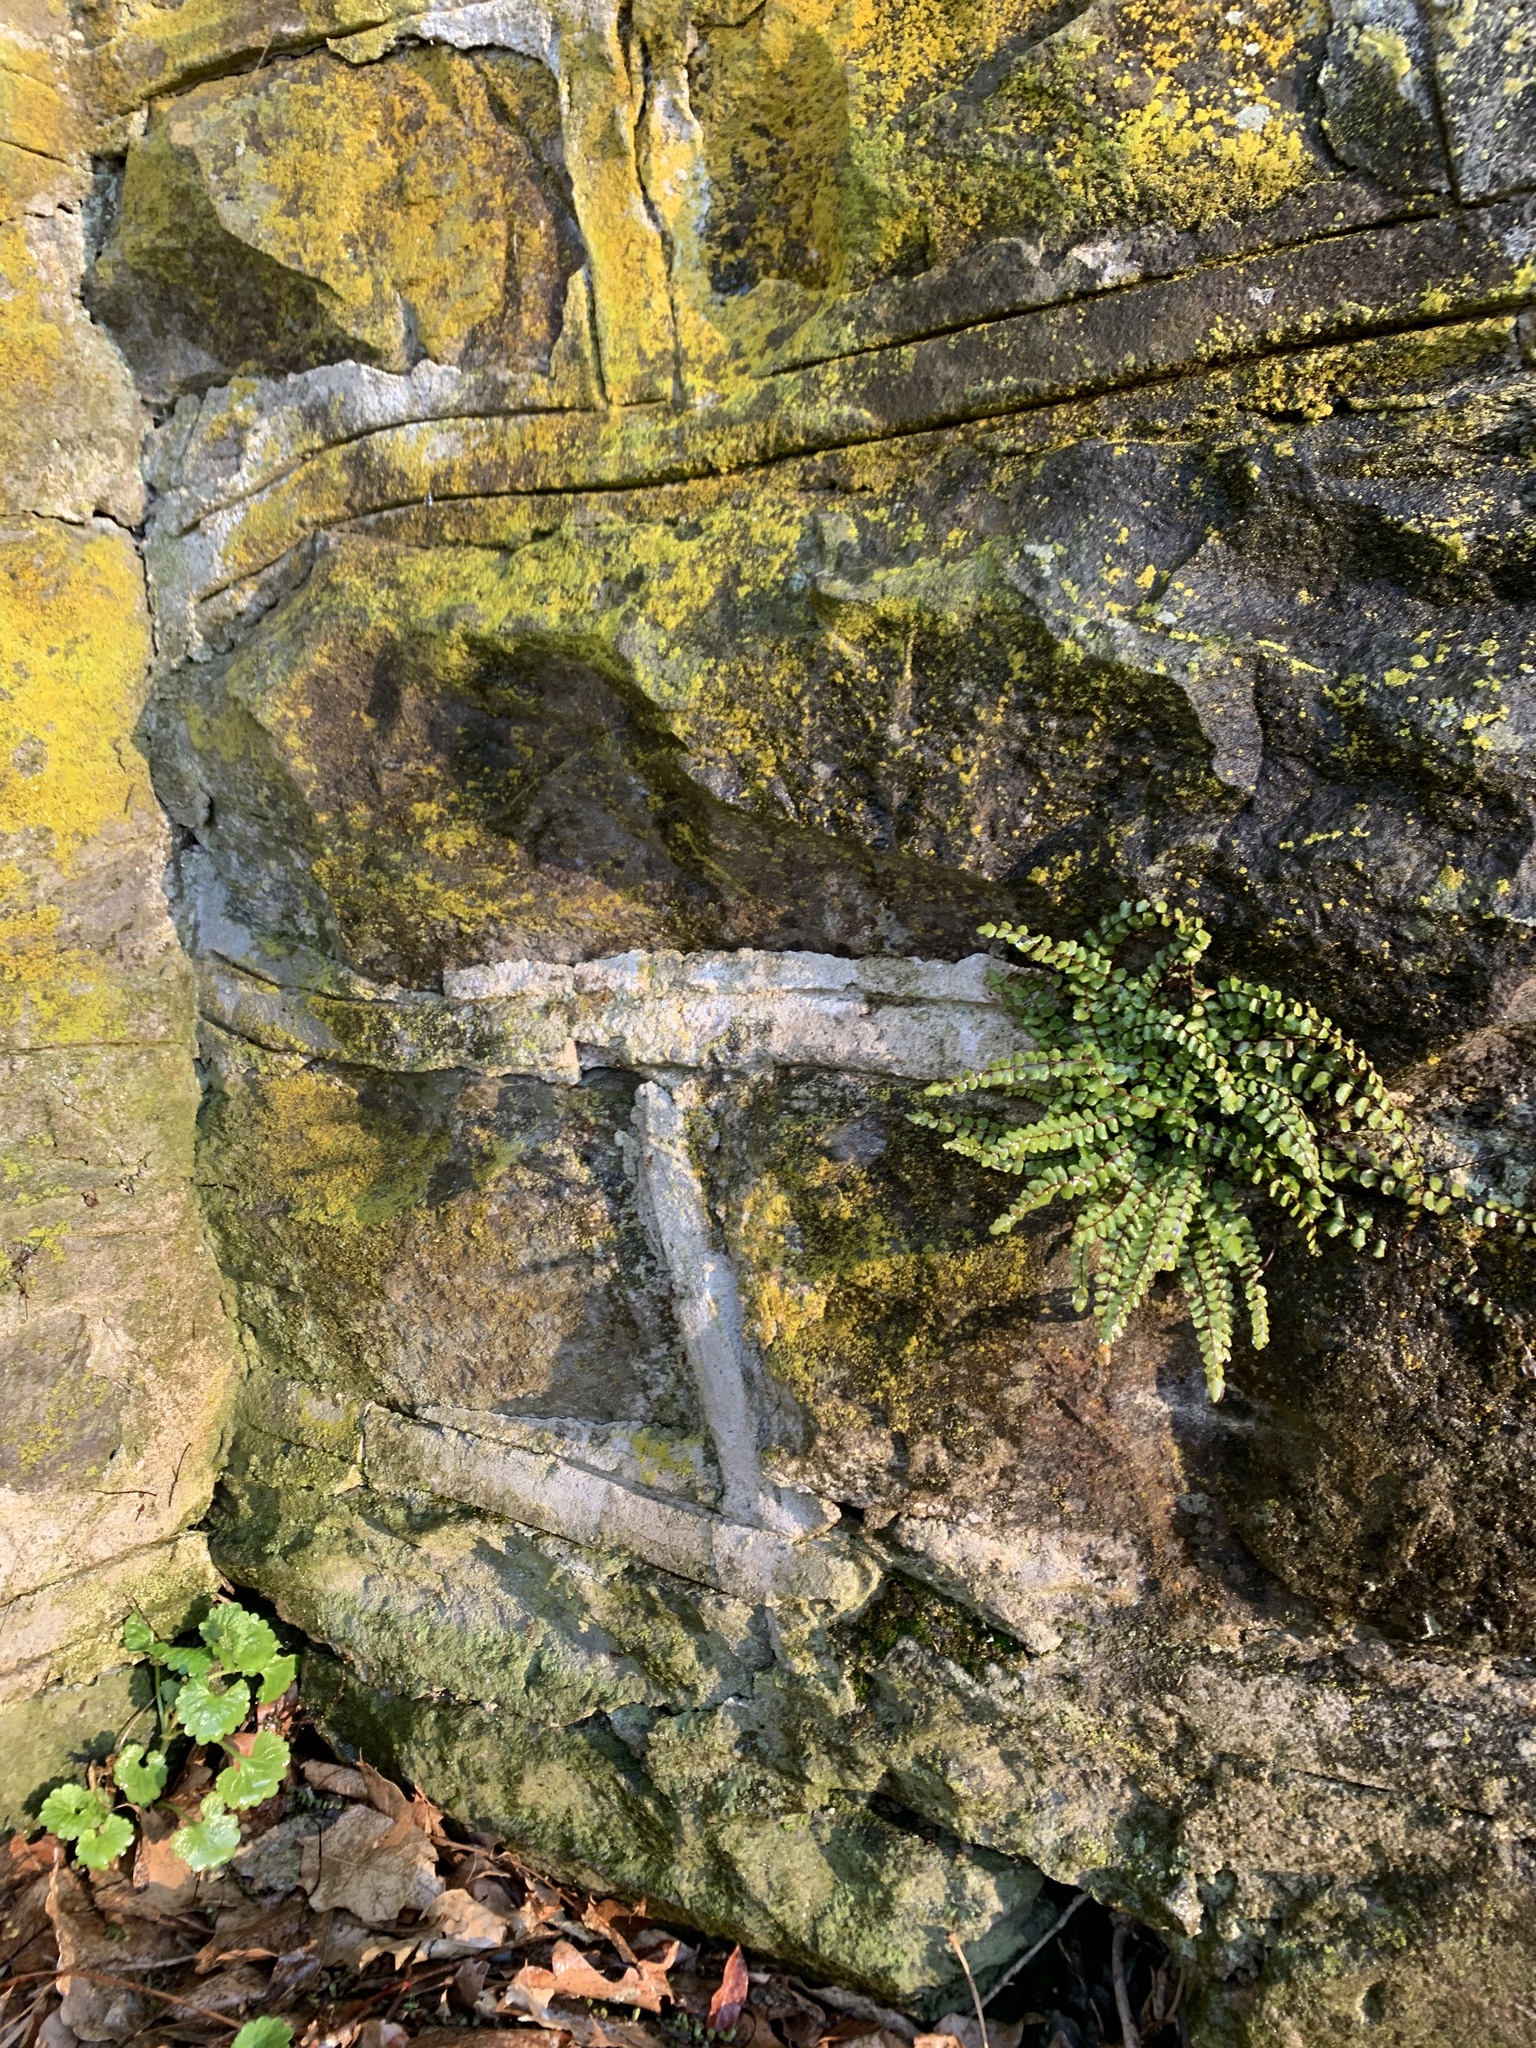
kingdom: Plantae
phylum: Tracheophyta
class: Polypodiopsida
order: Polypodiales
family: Aspleniaceae
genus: Asplenium
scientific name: Asplenium trichomanes
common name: Maidenhair spleenwort
